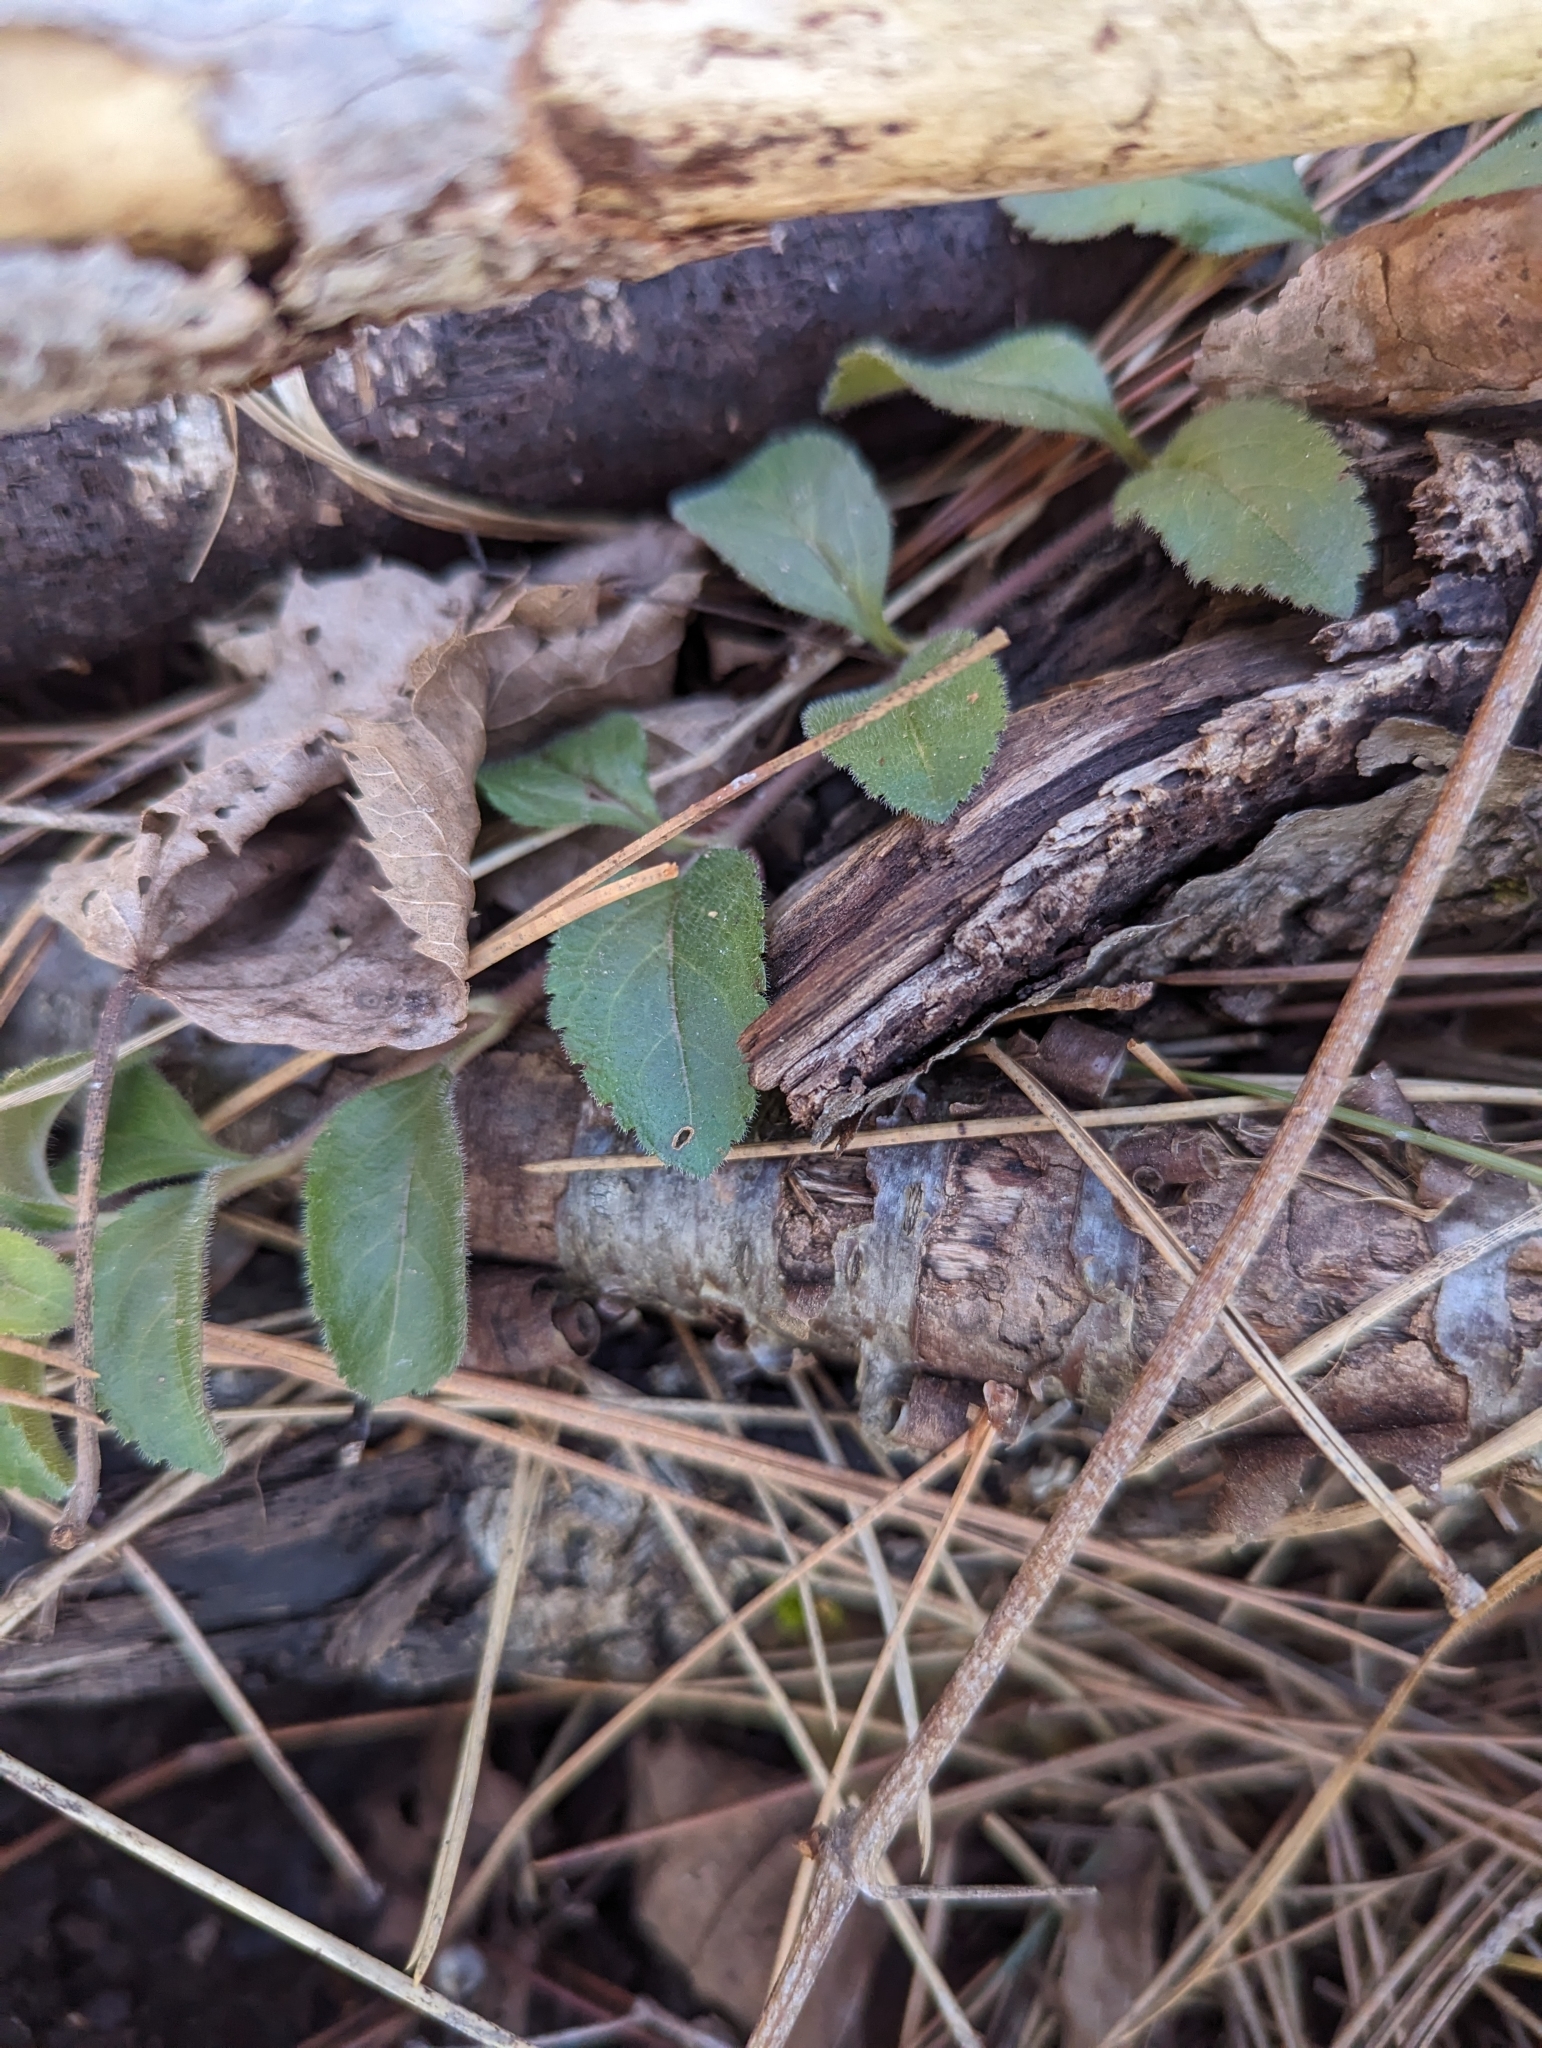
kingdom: Plantae
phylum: Tracheophyta
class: Magnoliopsida
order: Lamiales
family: Plantaginaceae
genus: Veronica
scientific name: Veronica officinalis
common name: Common speedwell
